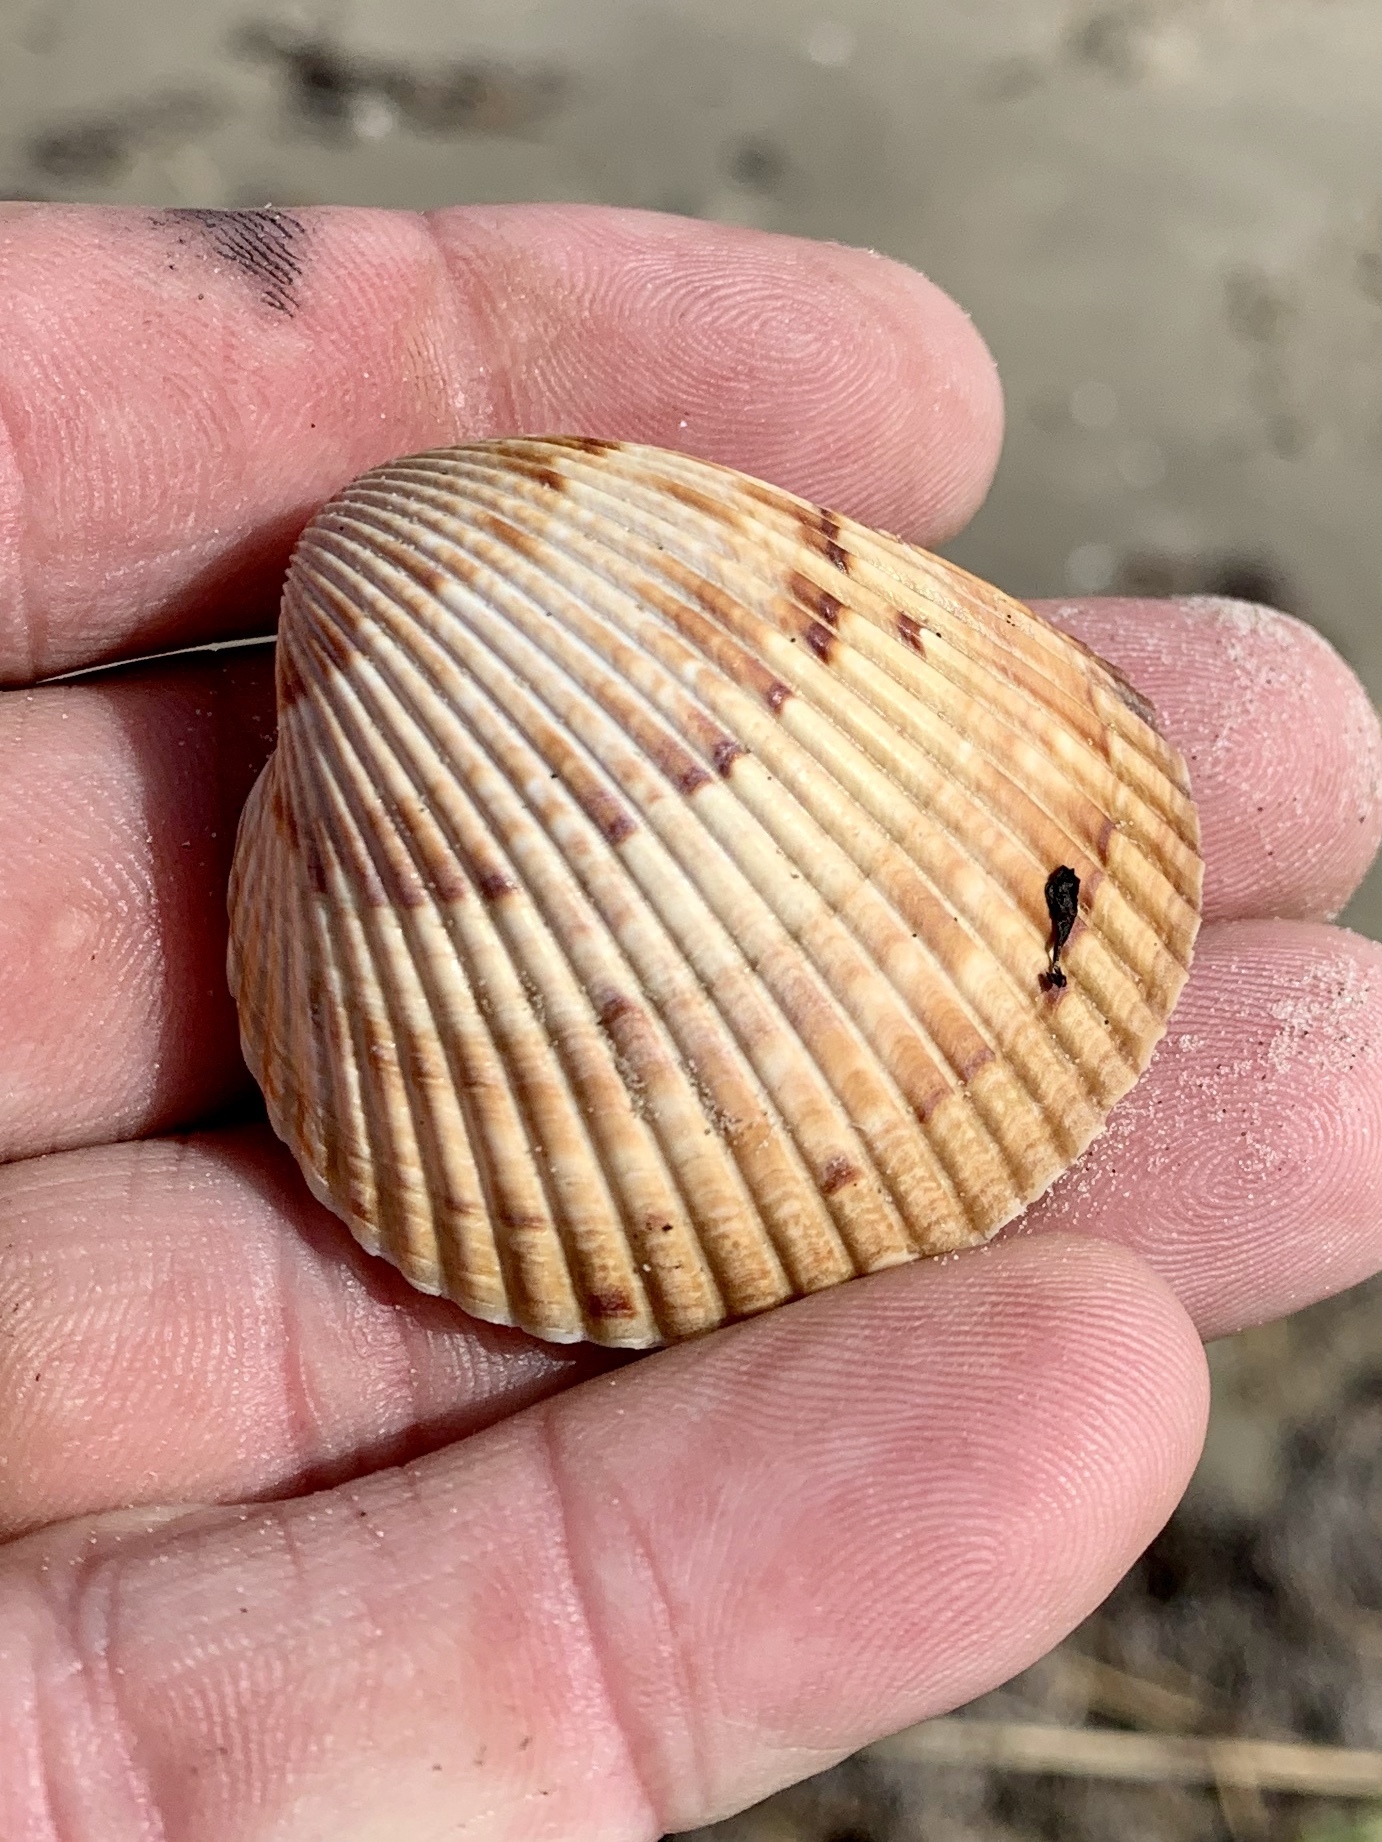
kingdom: Animalia
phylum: Mollusca
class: Bivalvia
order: Cardiida
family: Cardiidae
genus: Dinocardium
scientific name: Dinocardium robustum
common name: Atlantic giant cockle
